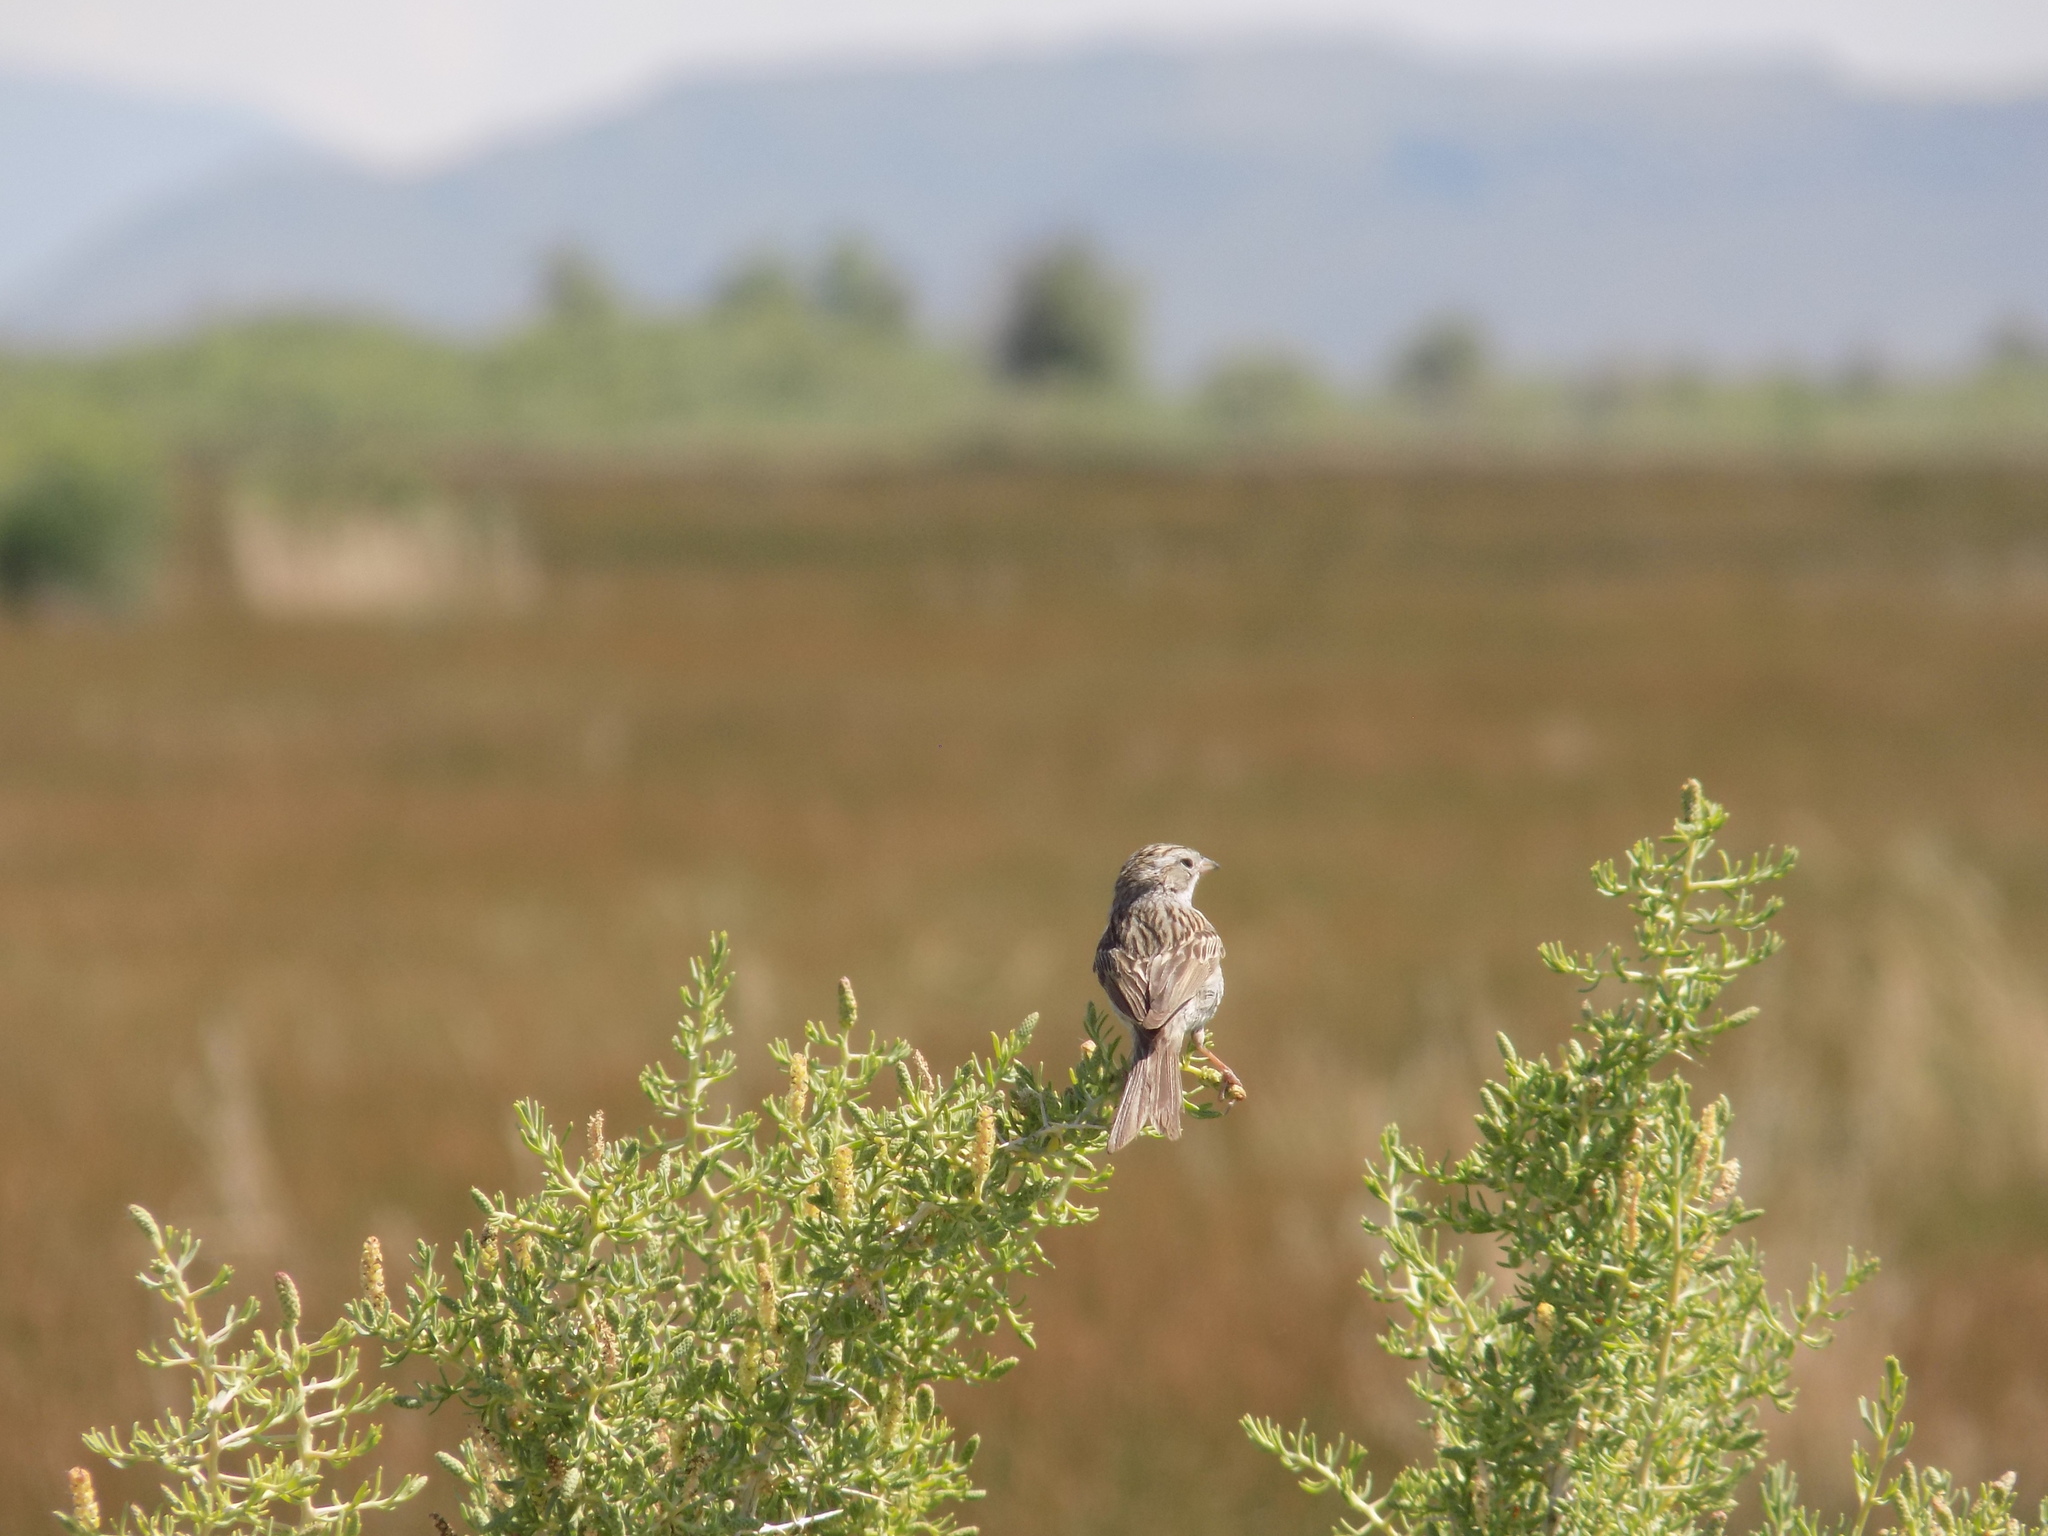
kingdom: Animalia
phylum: Chordata
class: Aves
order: Passeriformes
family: Passerellidae
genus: Spizella
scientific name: Spizella breweri
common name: Brewer's sparrow
